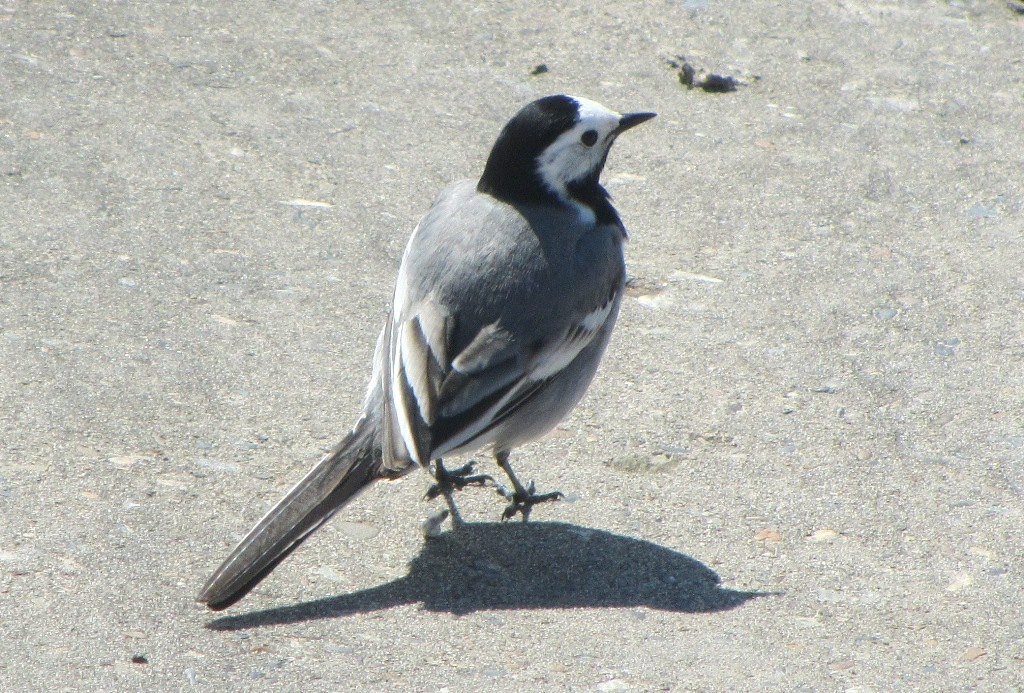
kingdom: Animalia
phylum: Chordata
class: Aves
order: Passeriformes
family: Motacillidae
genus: Motacilla
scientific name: Motacilla alba
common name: White wagtail
